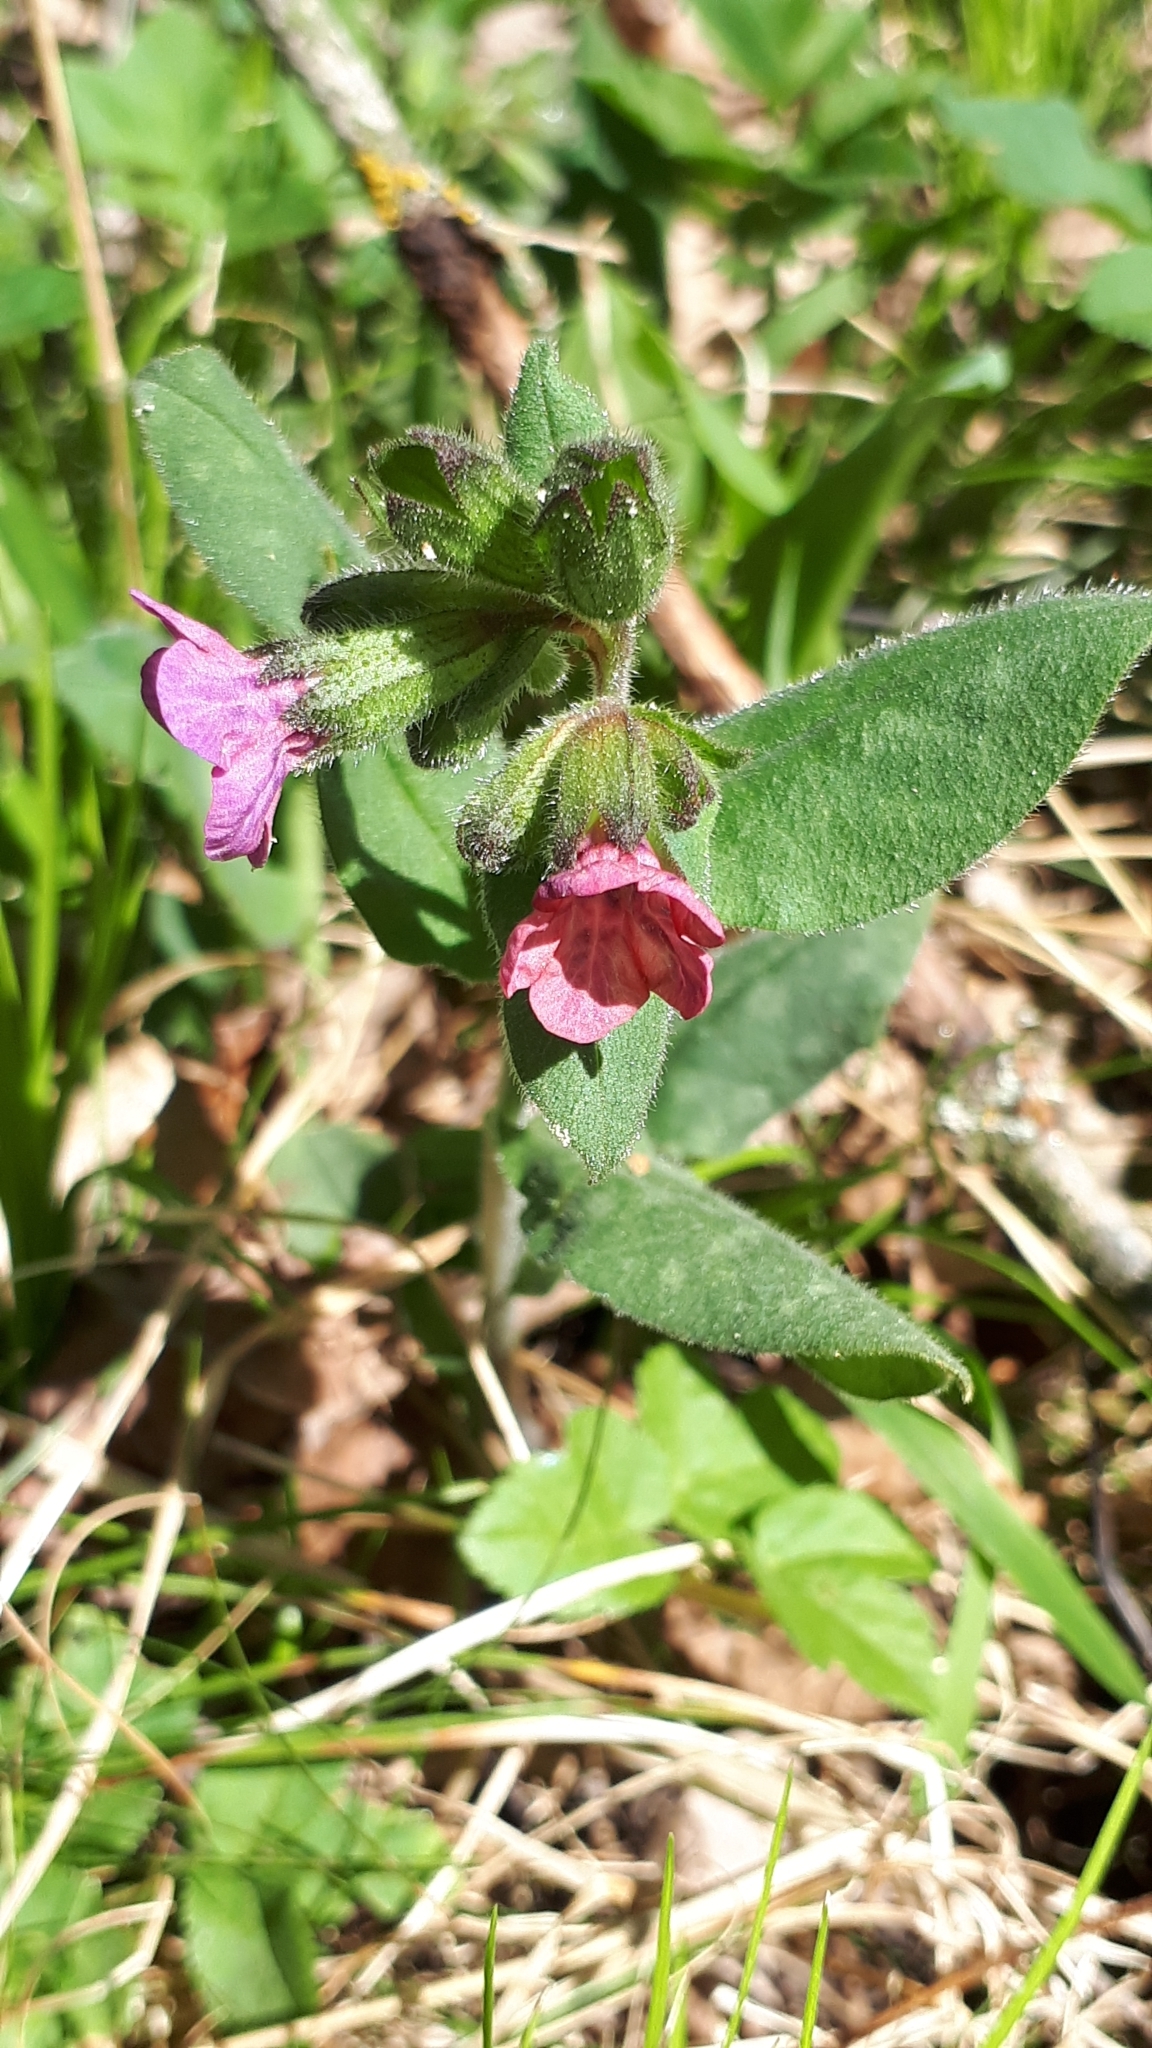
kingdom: Plantae
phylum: Tracheophyta
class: Magnoliopsida
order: Boraginales
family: Boraginaceae
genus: Pulmonaria
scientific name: Pulmonaria officinalis
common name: Lungwort
